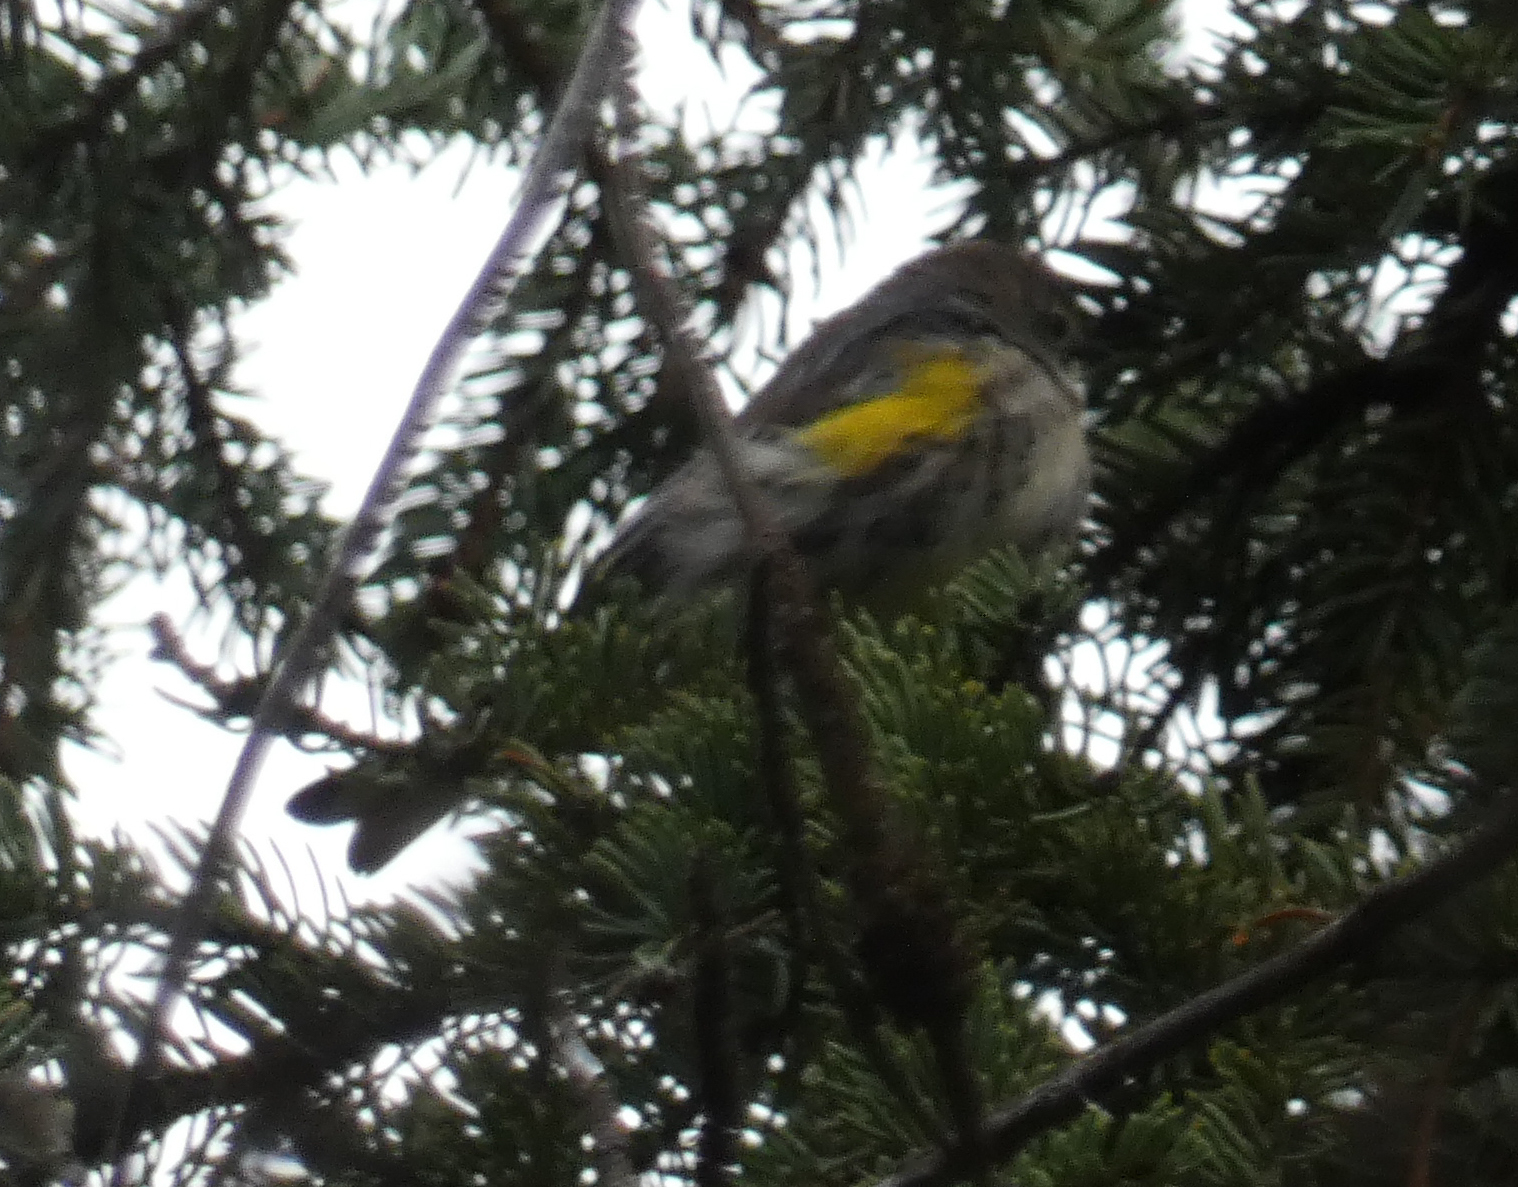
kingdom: Animalia
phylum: Chordata
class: Aves
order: Passeriformes
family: Parulidae
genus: Setophaga
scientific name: Setophaga coronata
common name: Myrtle warbler
